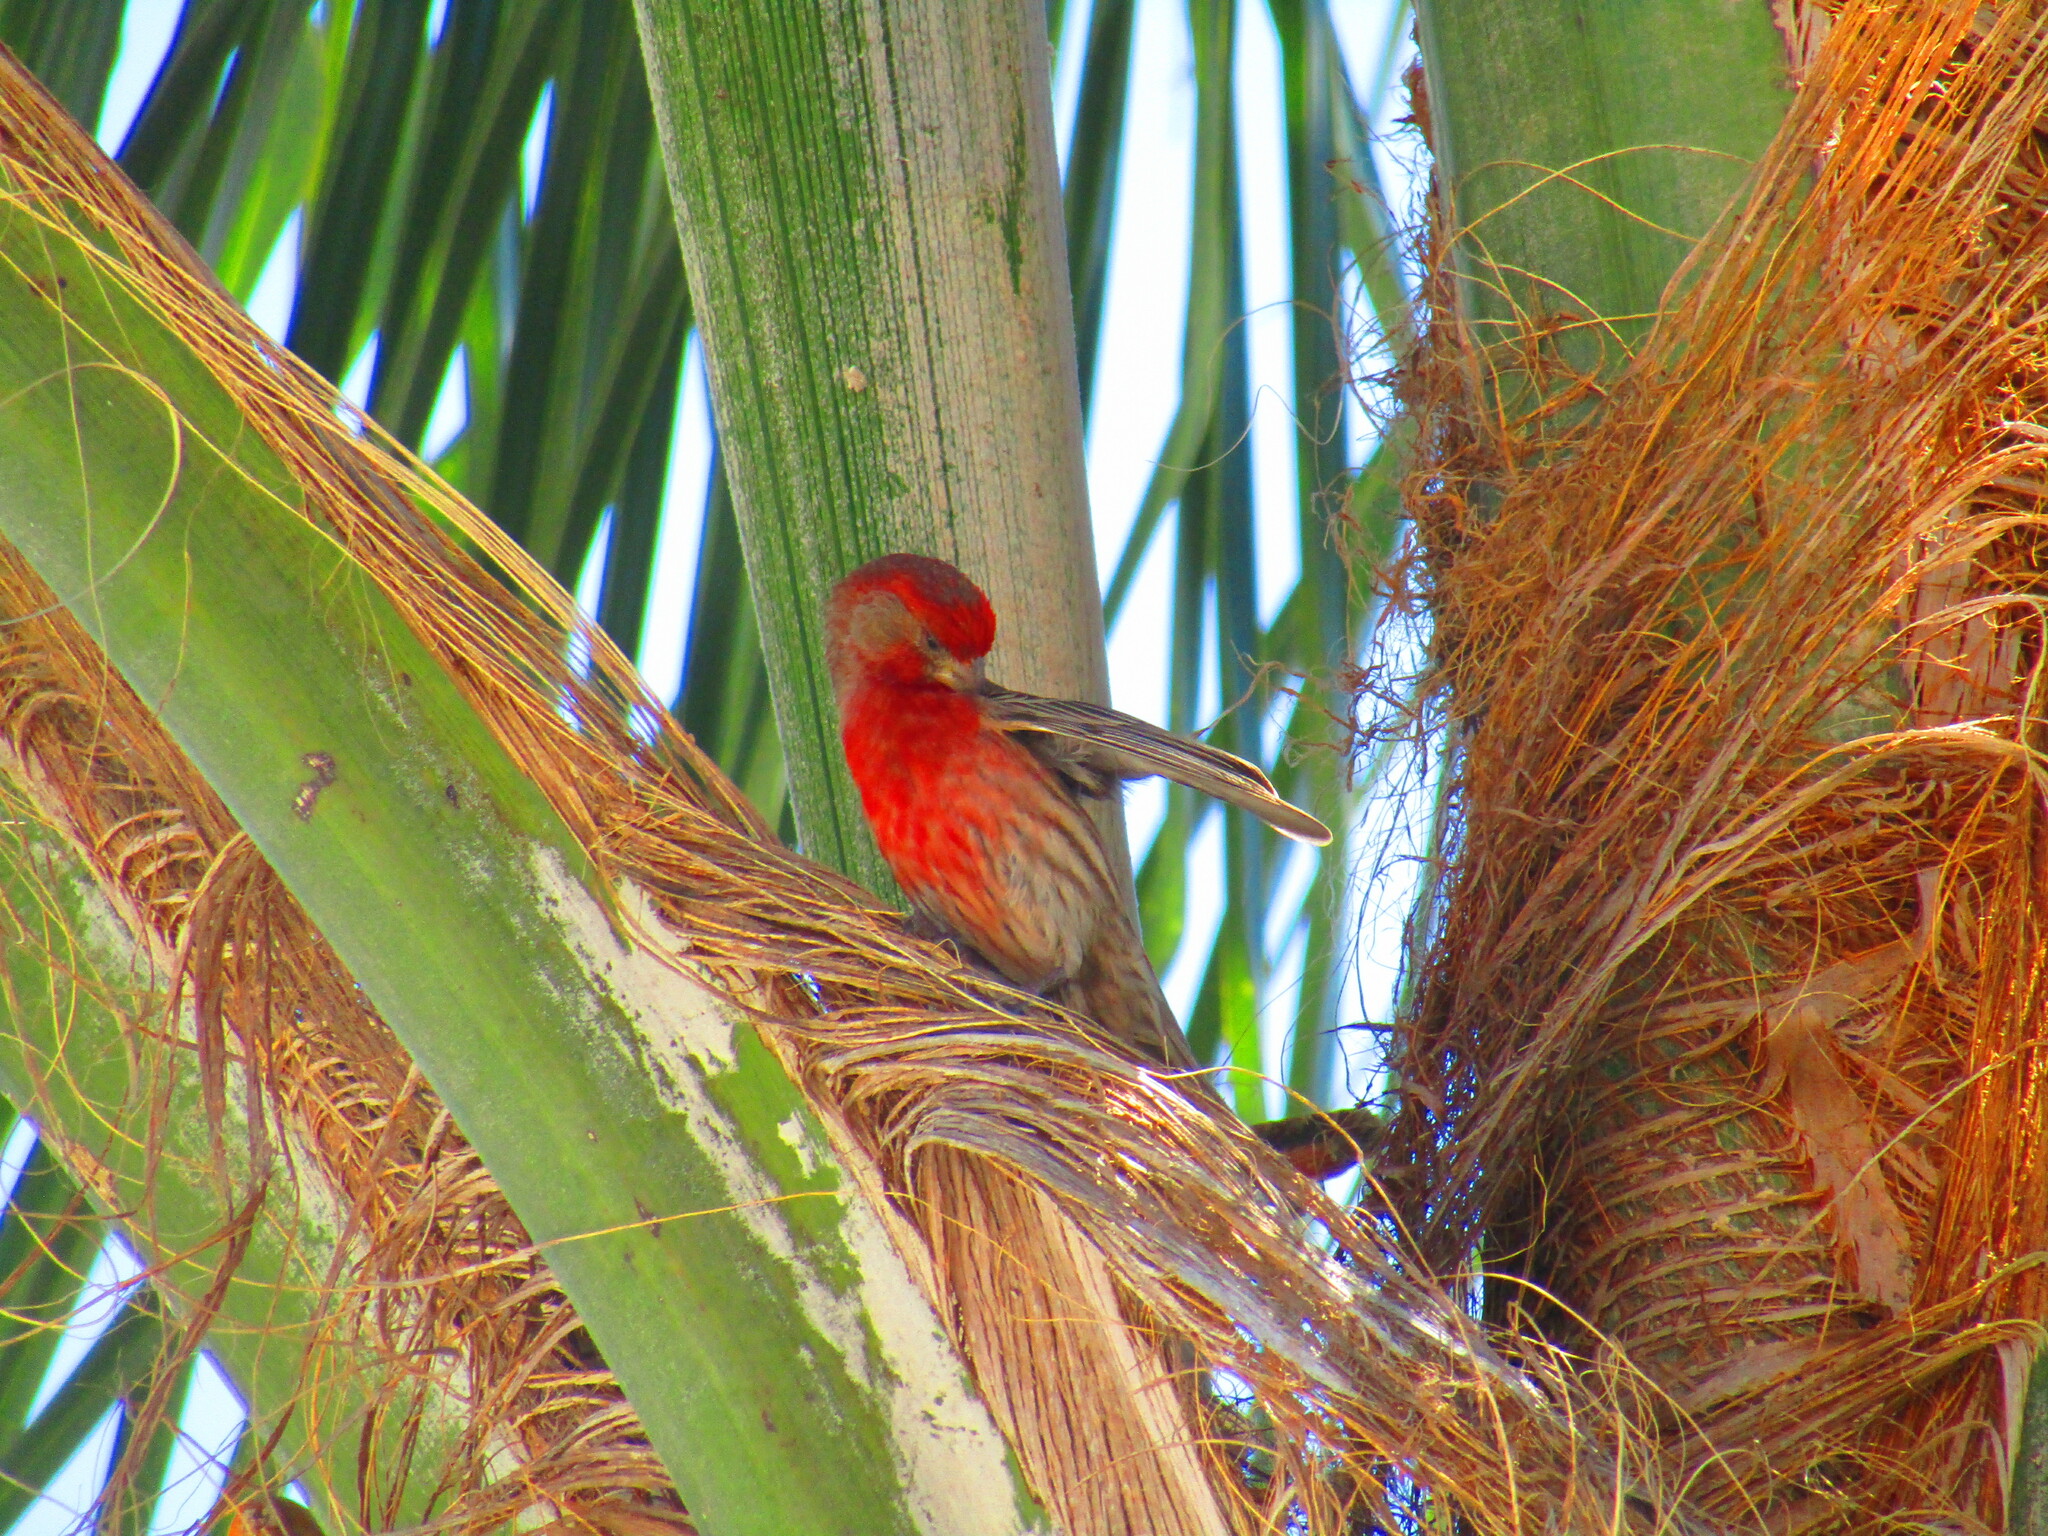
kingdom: Animalia
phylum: Chordata
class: Aves
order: Passeriformes
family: Fringillidae
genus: Haemorhous
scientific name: Haemorhous mexicanus
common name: House finch
